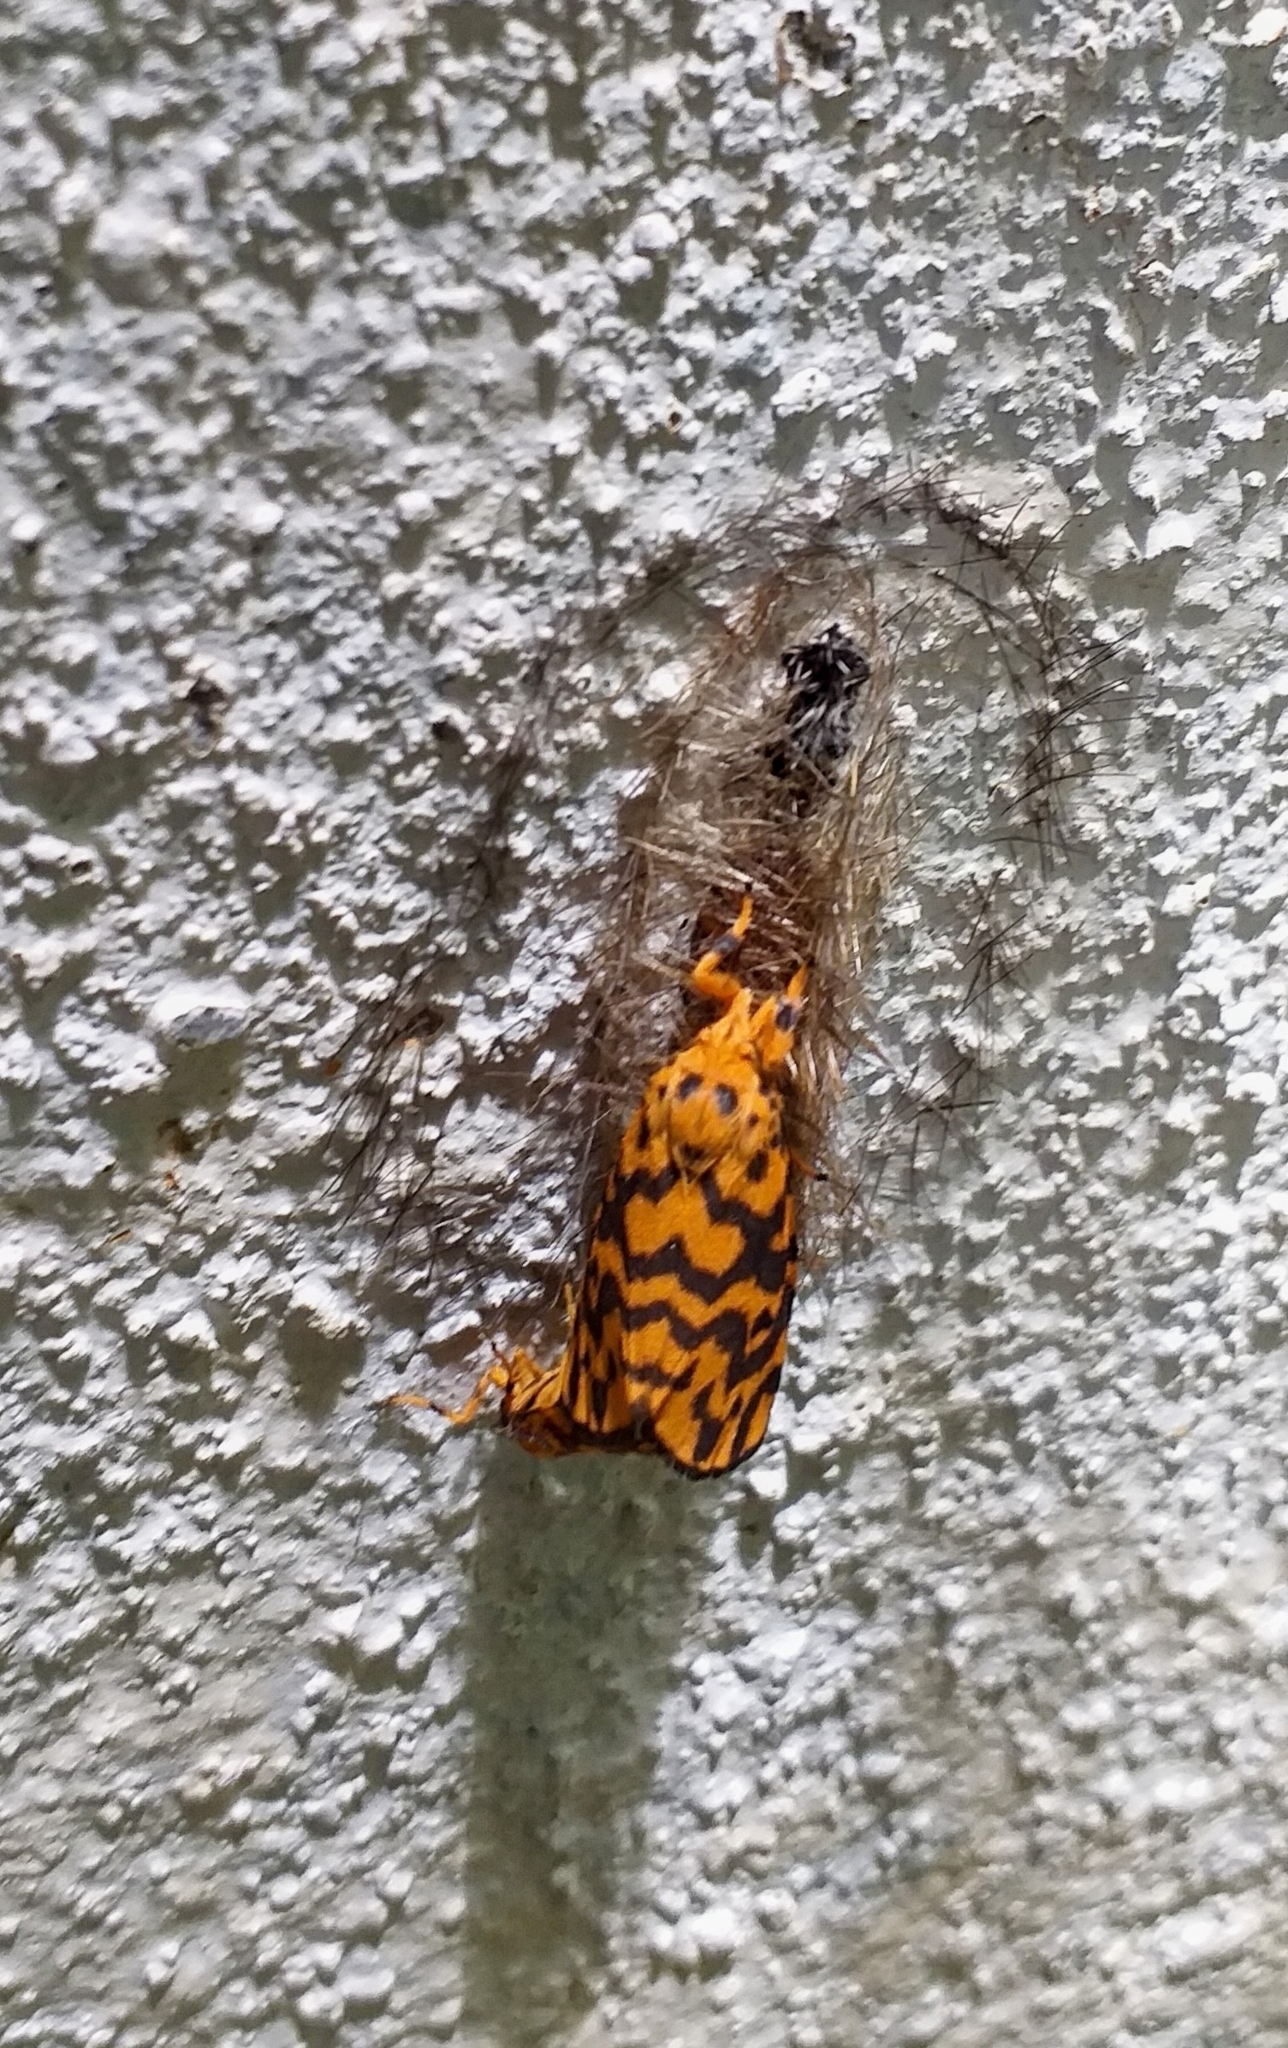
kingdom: Animalia
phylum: Arthropoda
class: Insecta
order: Lepidoptera
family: Erebidae
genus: Nepita
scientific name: Nepita conferta
